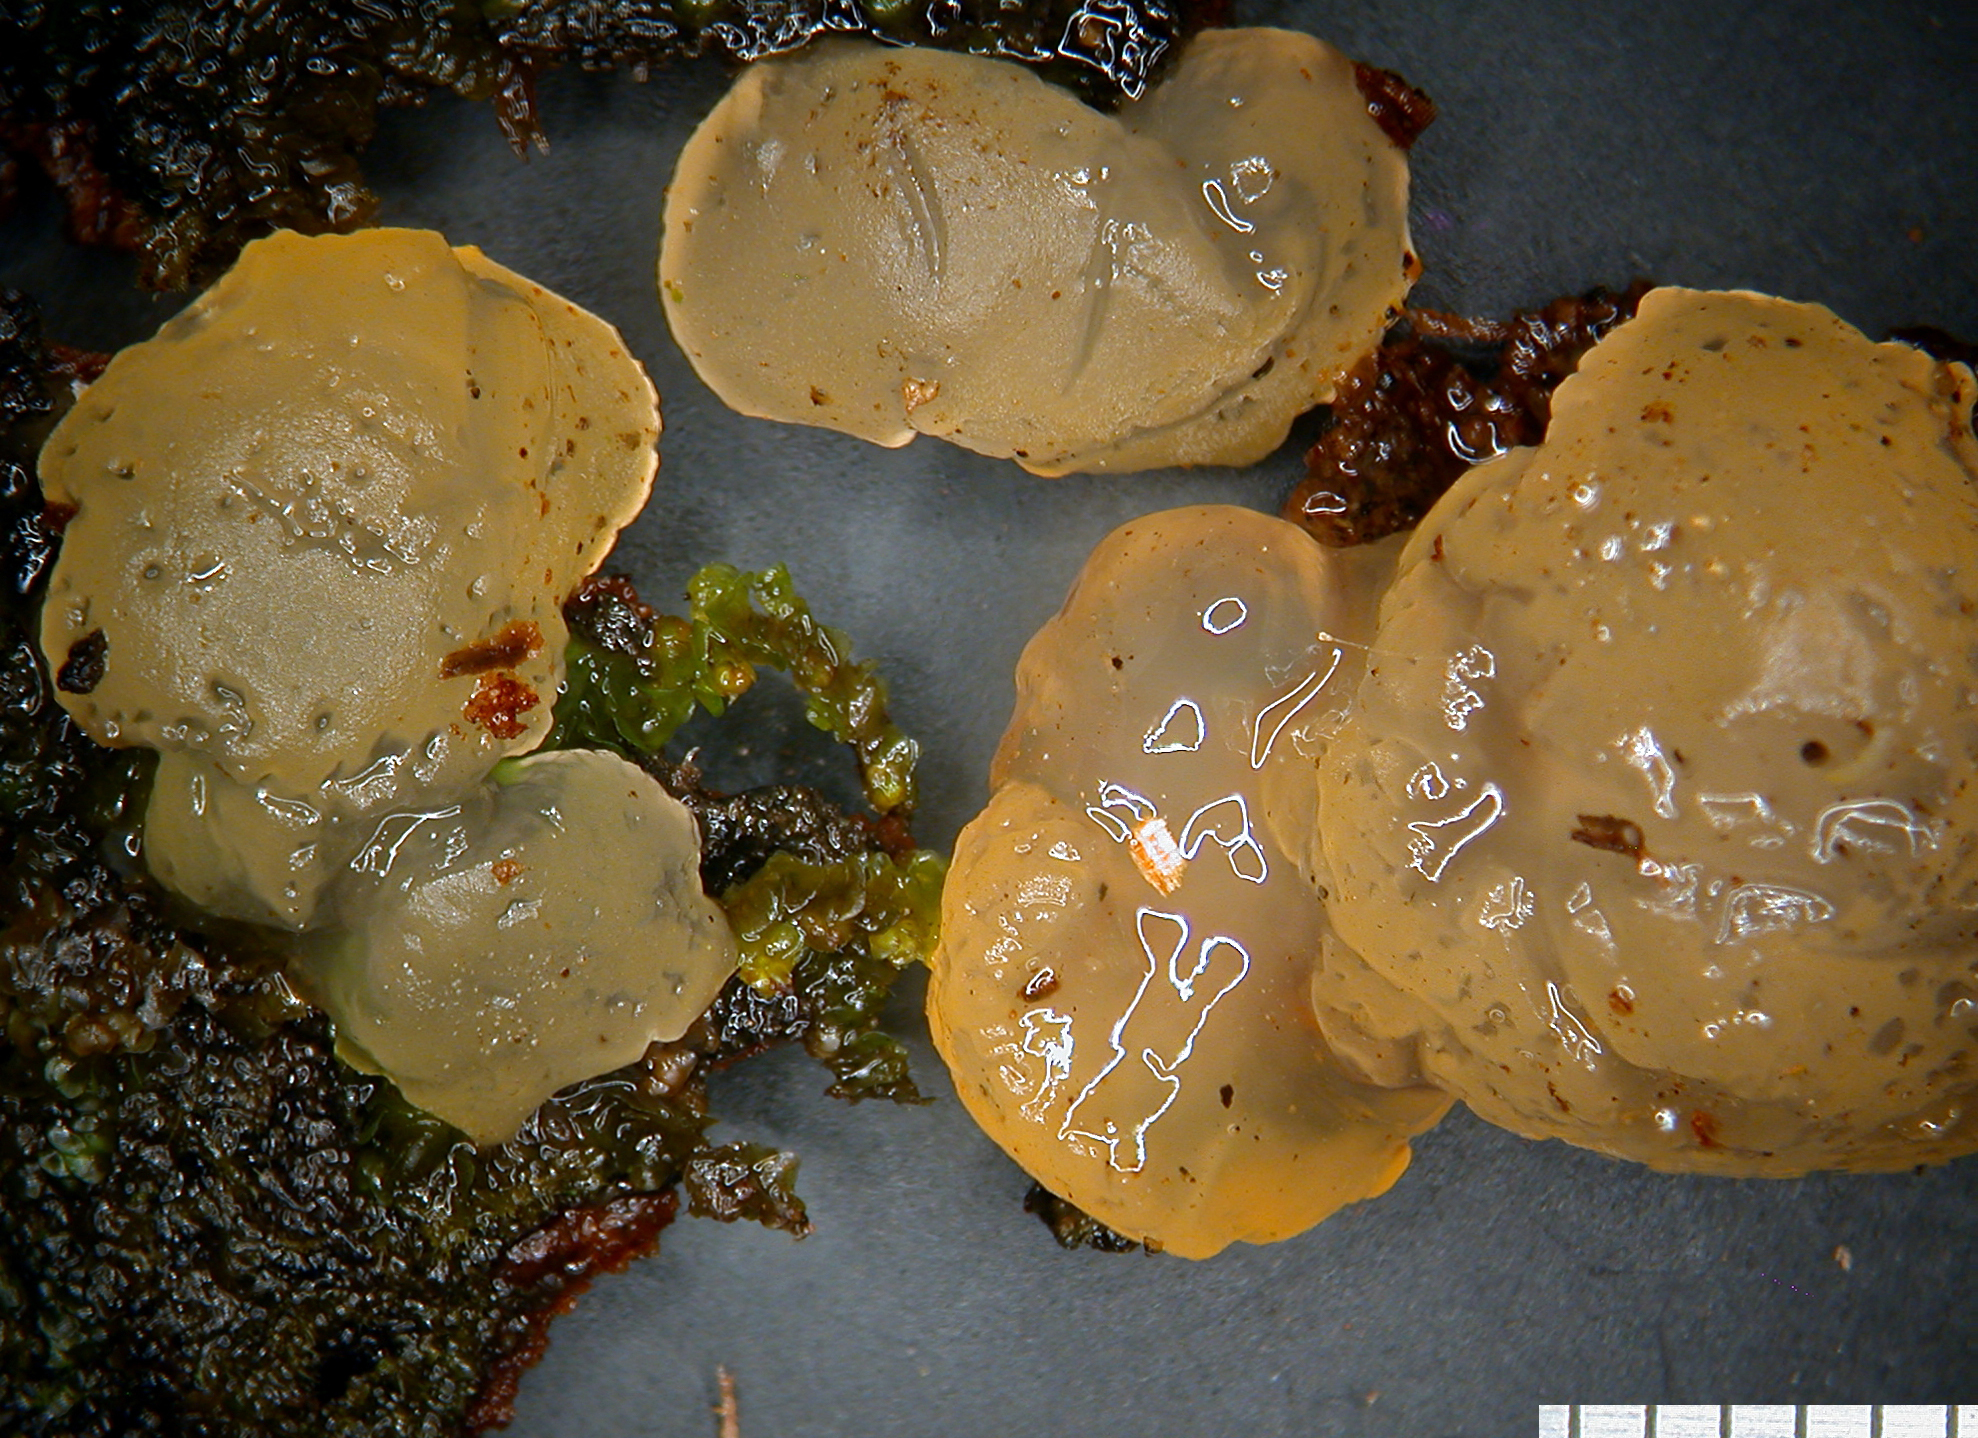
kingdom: Fungi
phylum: Basidiomycota
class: Dacrymycetes
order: Dacrymycetales
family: Dacrymycetaceae
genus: Dacrymyces
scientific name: Dacrymyces subantarcticensis
